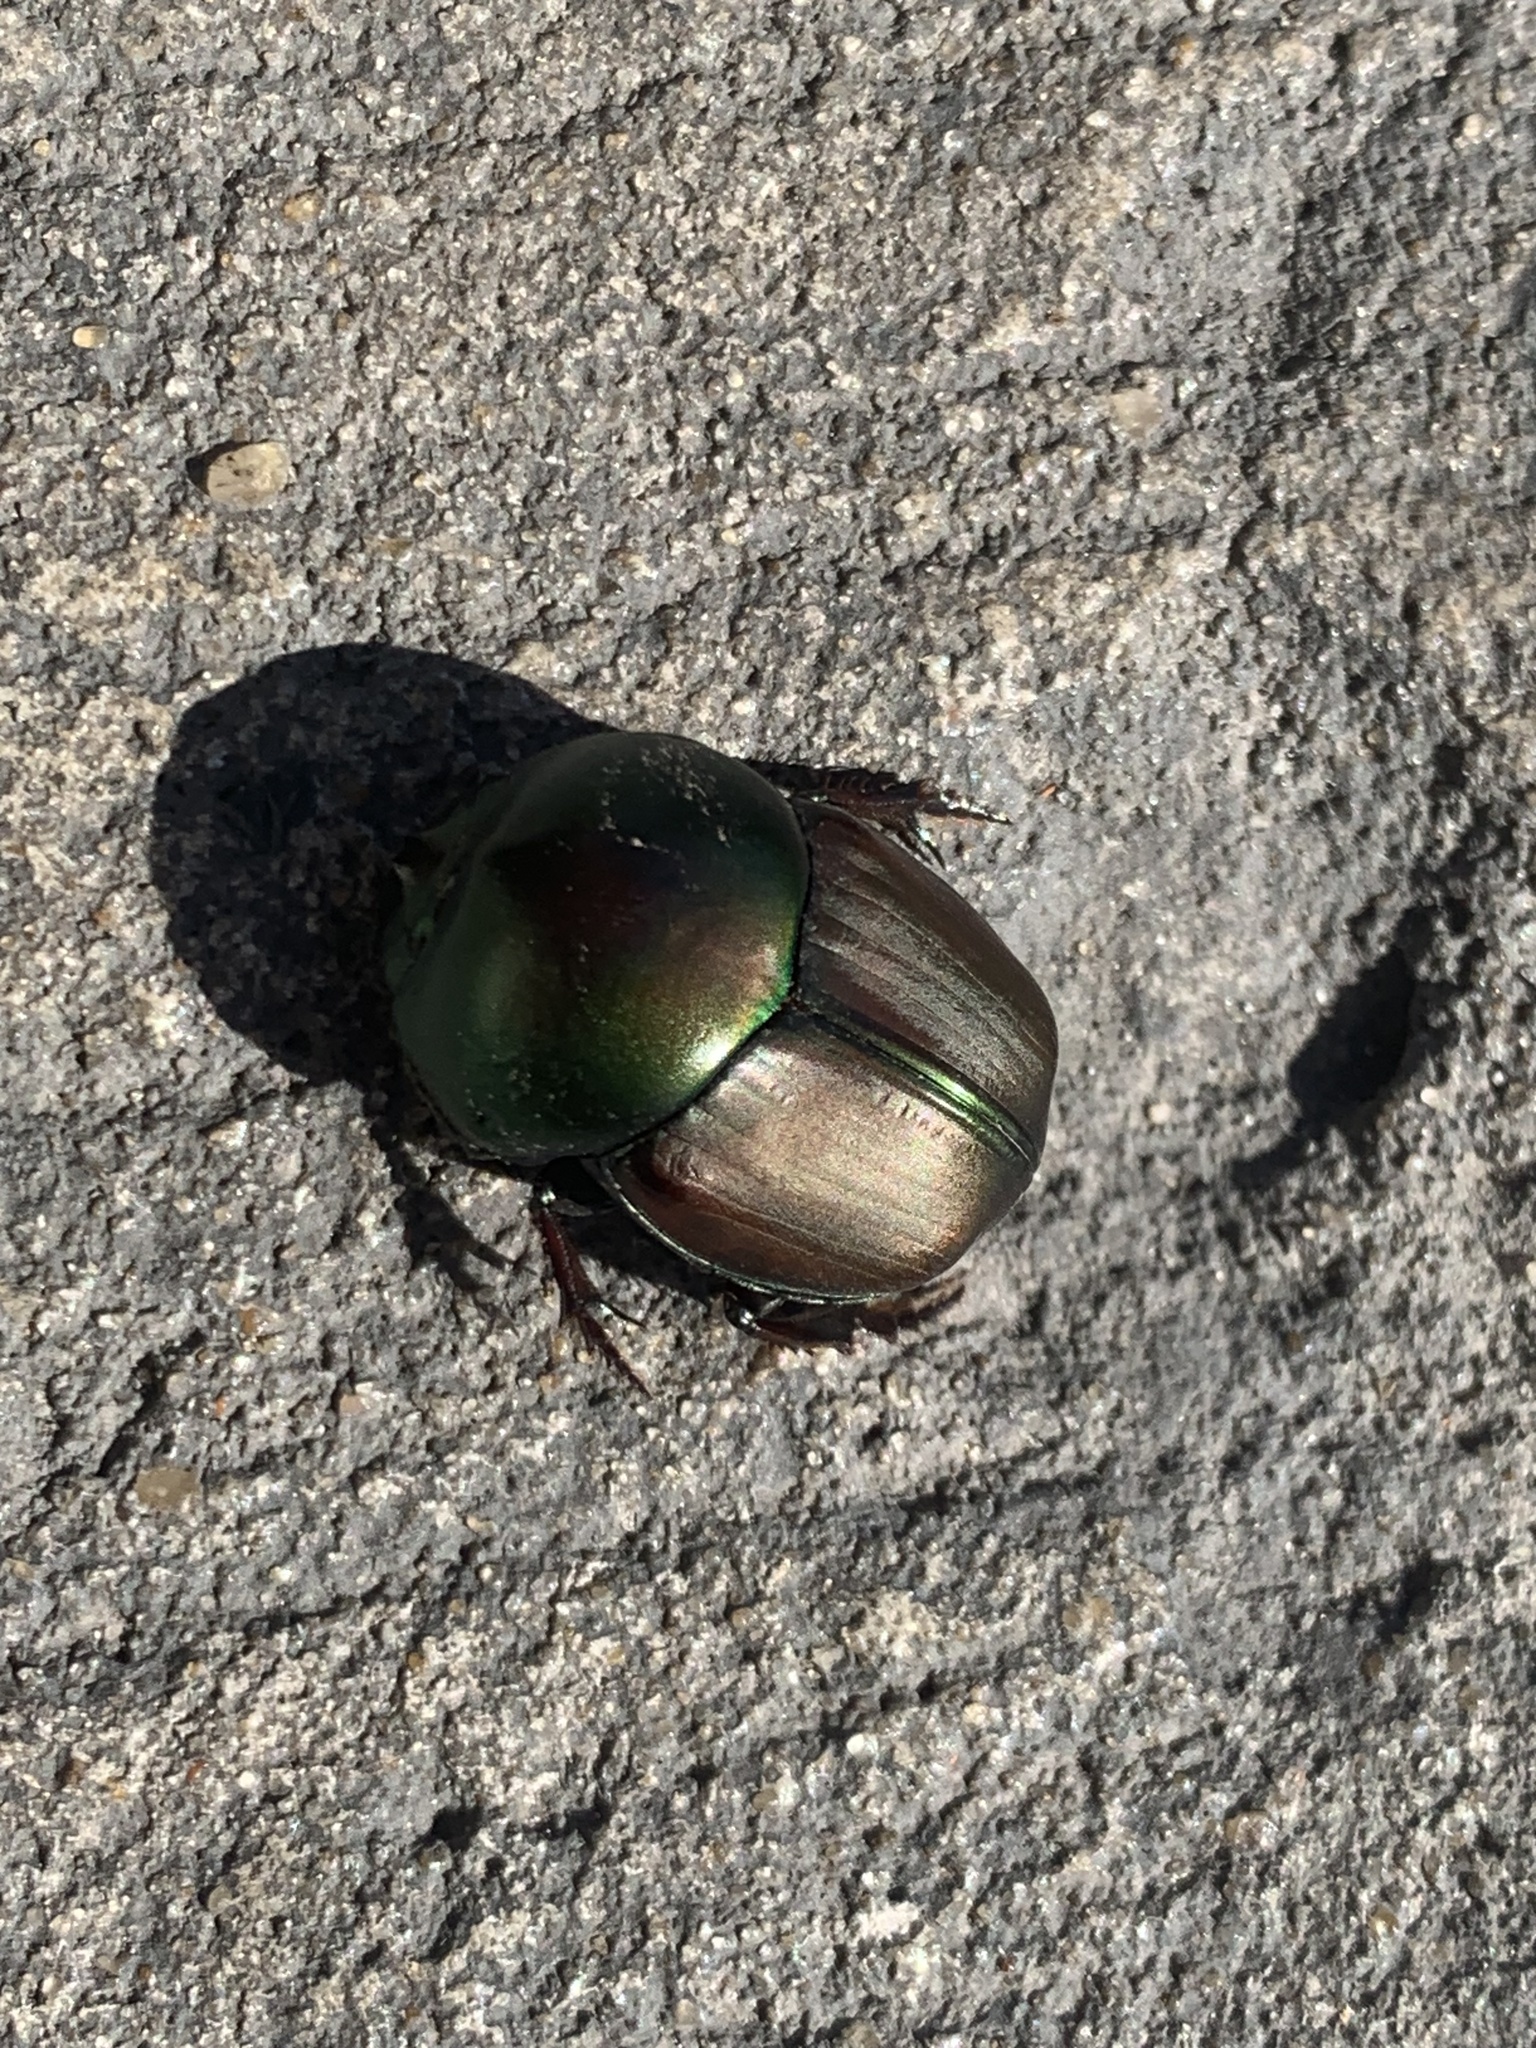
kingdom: Animalia
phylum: Arthropoda
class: Insecta
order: Coleoptera
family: Scarabaeidae
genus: Gromphas
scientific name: Gromphas inermis
